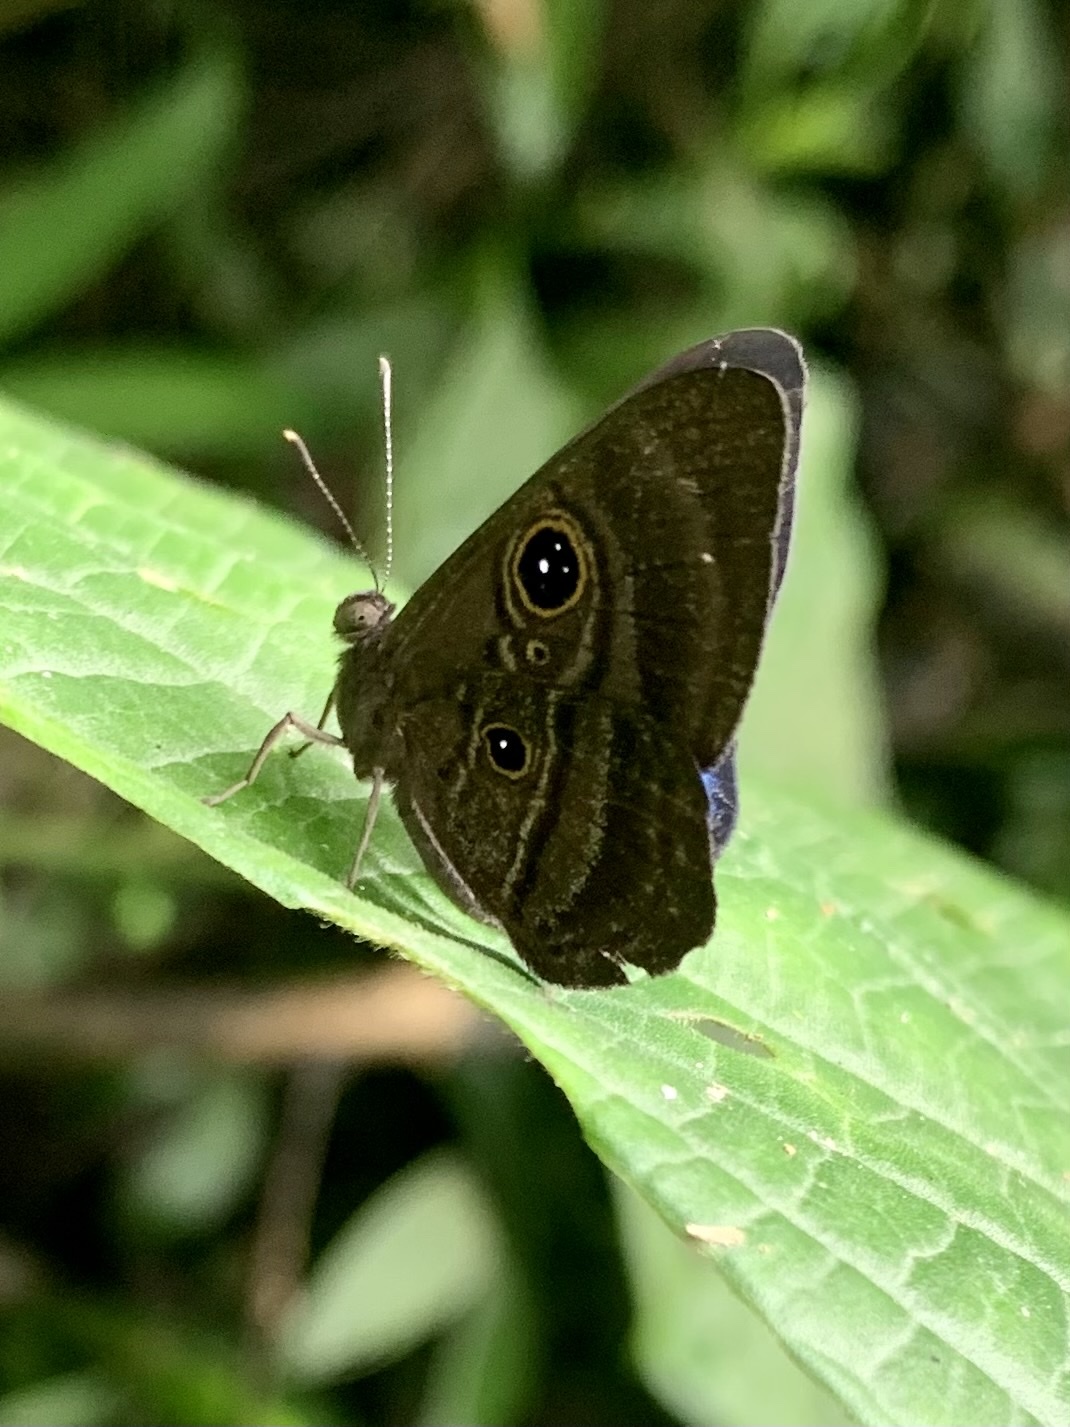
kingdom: Animalia
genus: Mesosemia
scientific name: Mesosemia asa
